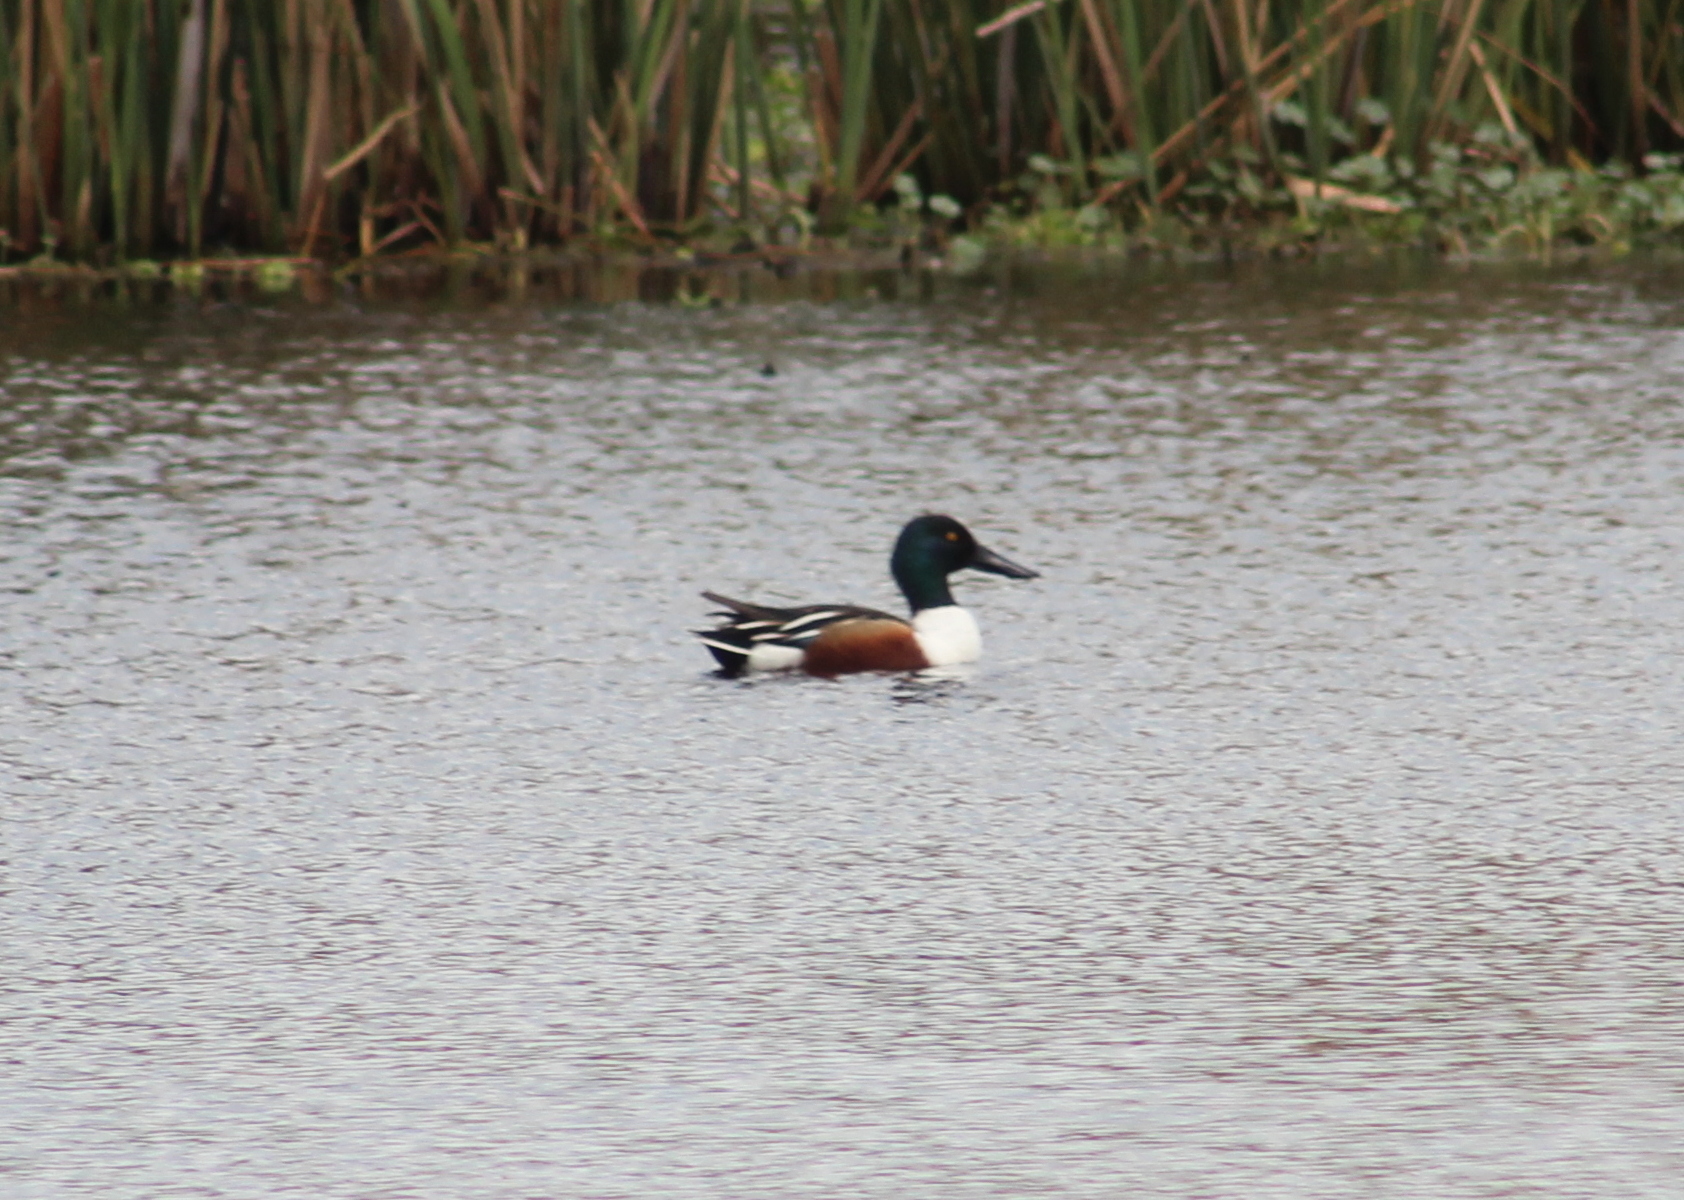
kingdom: Animalia
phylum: Chordata
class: Aves
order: Anseriformes
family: Anatidae
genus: Spatula
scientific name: Spatula clypeata
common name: Northern shoveler
